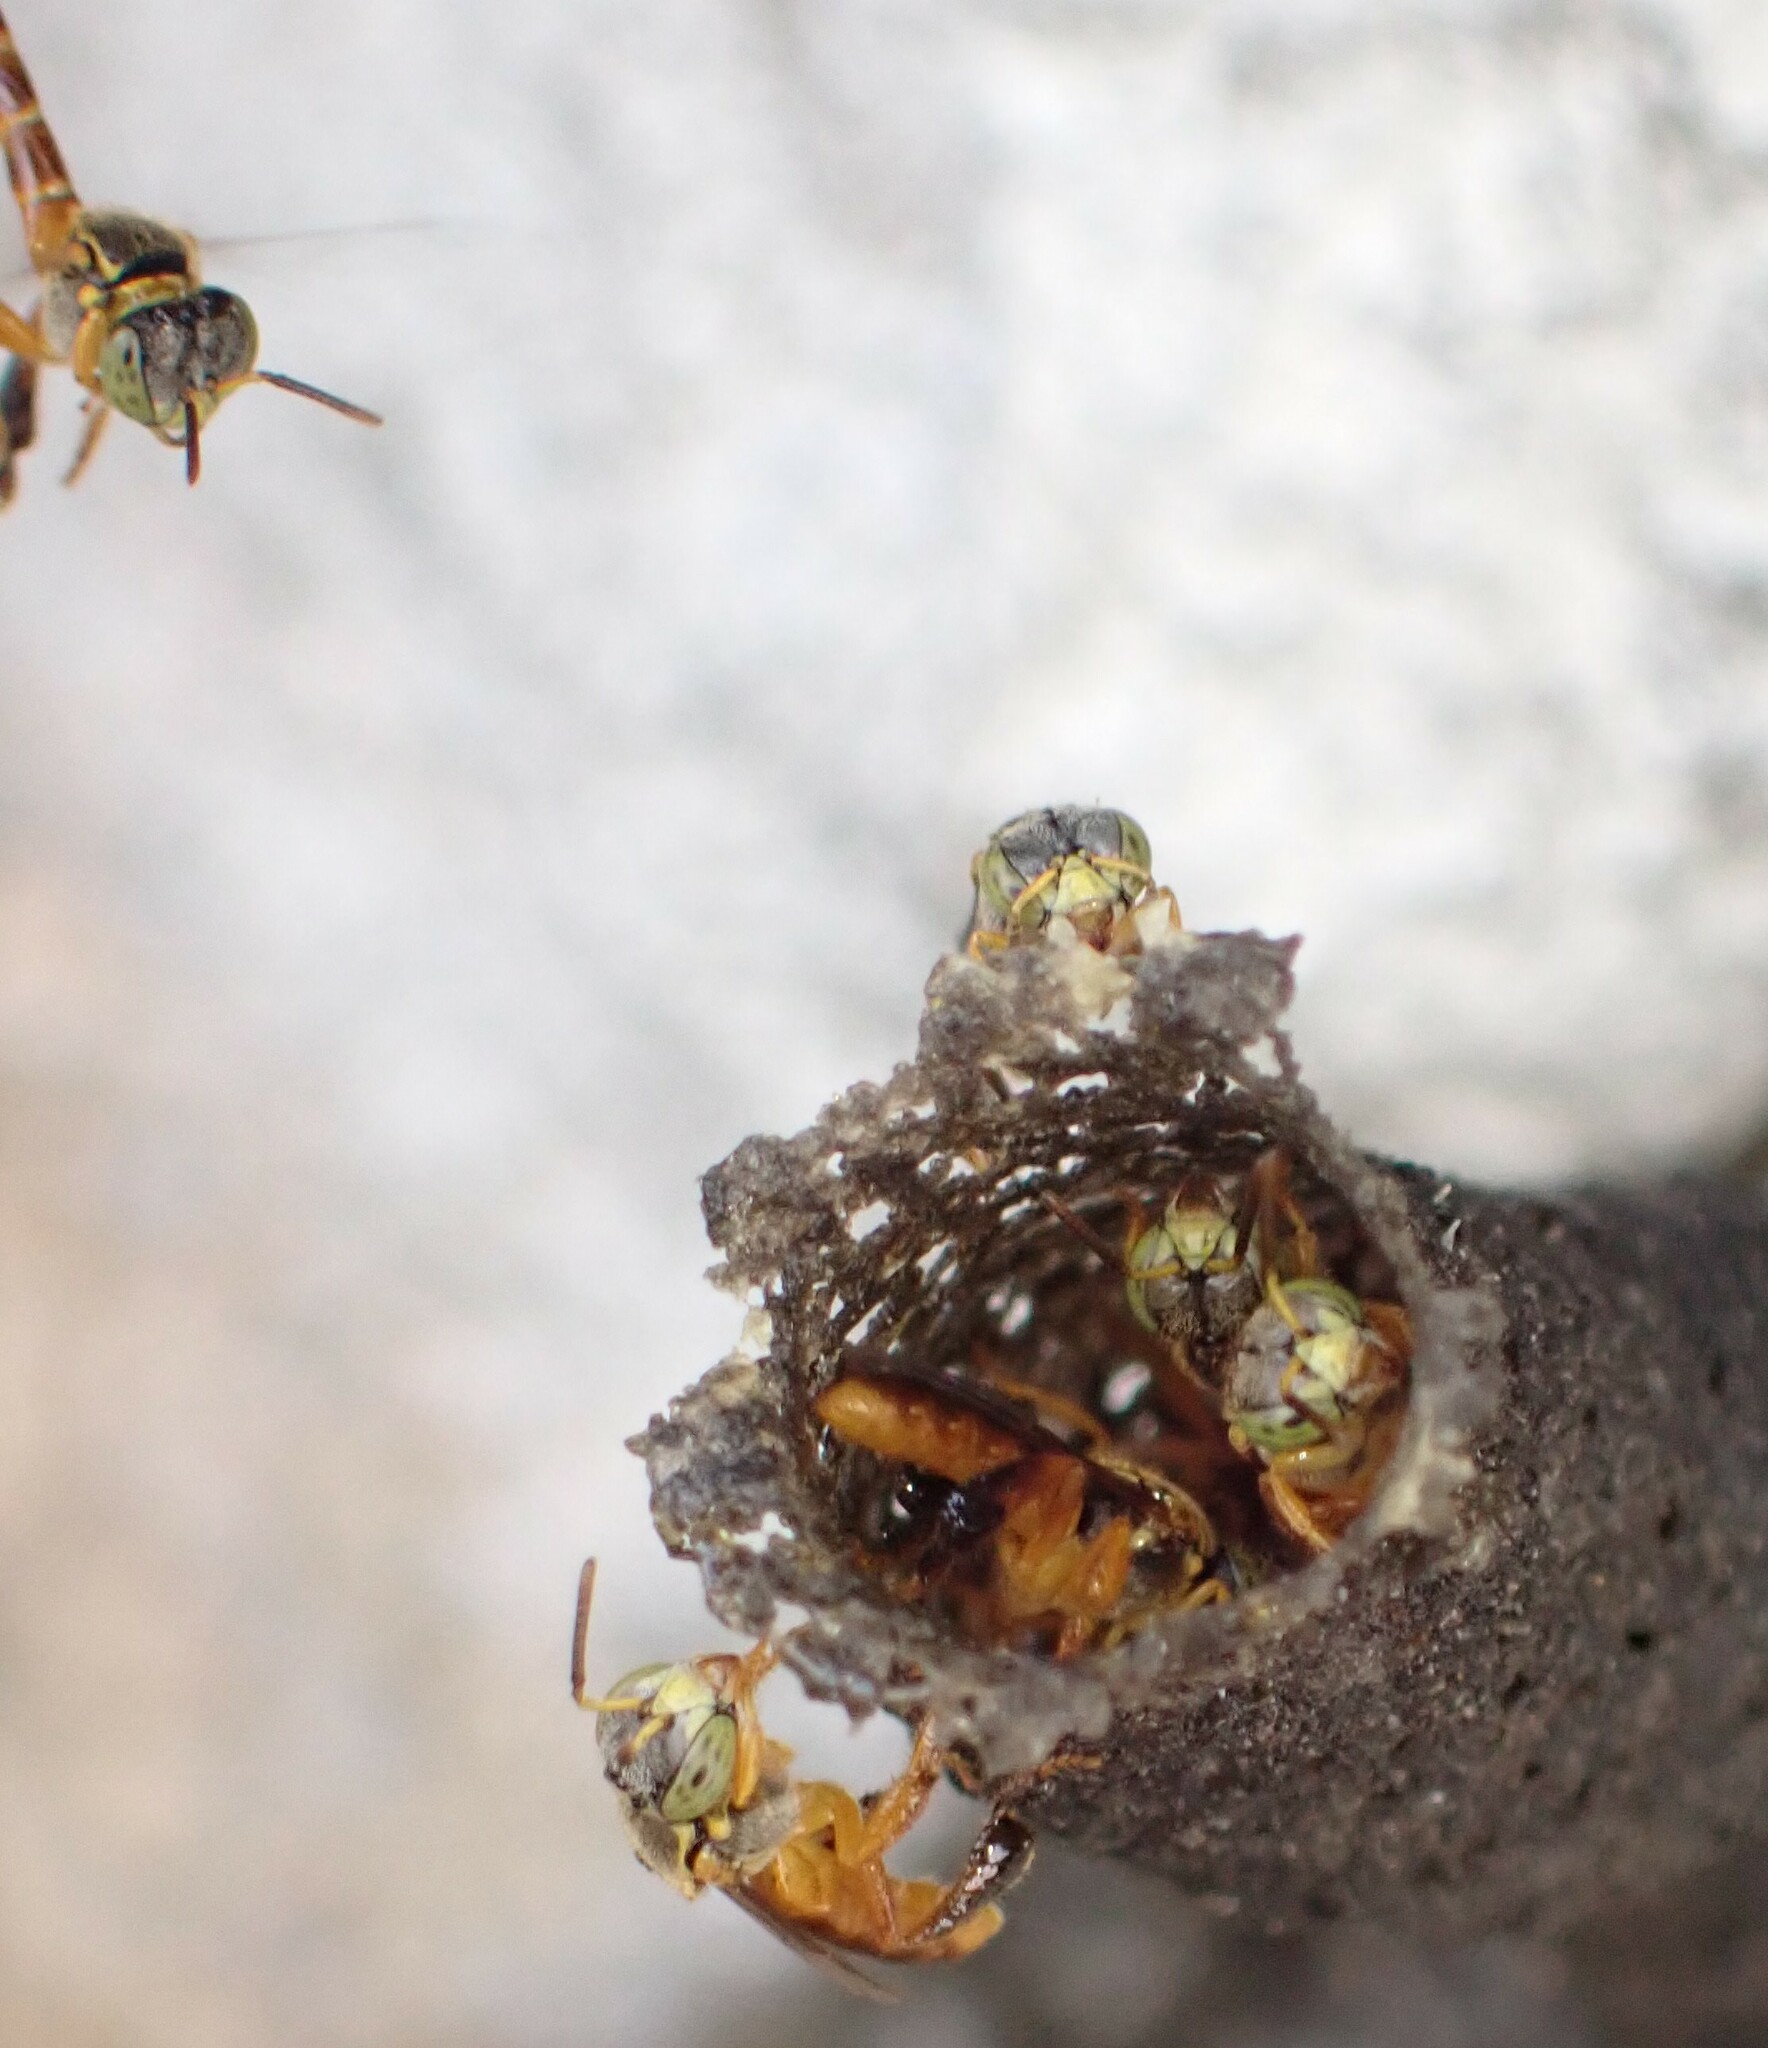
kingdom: Animalia
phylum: Arthropoda
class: Insecta
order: Hymenoptera
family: Apidae
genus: Tetragonisca
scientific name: Tetragonisca angustula
